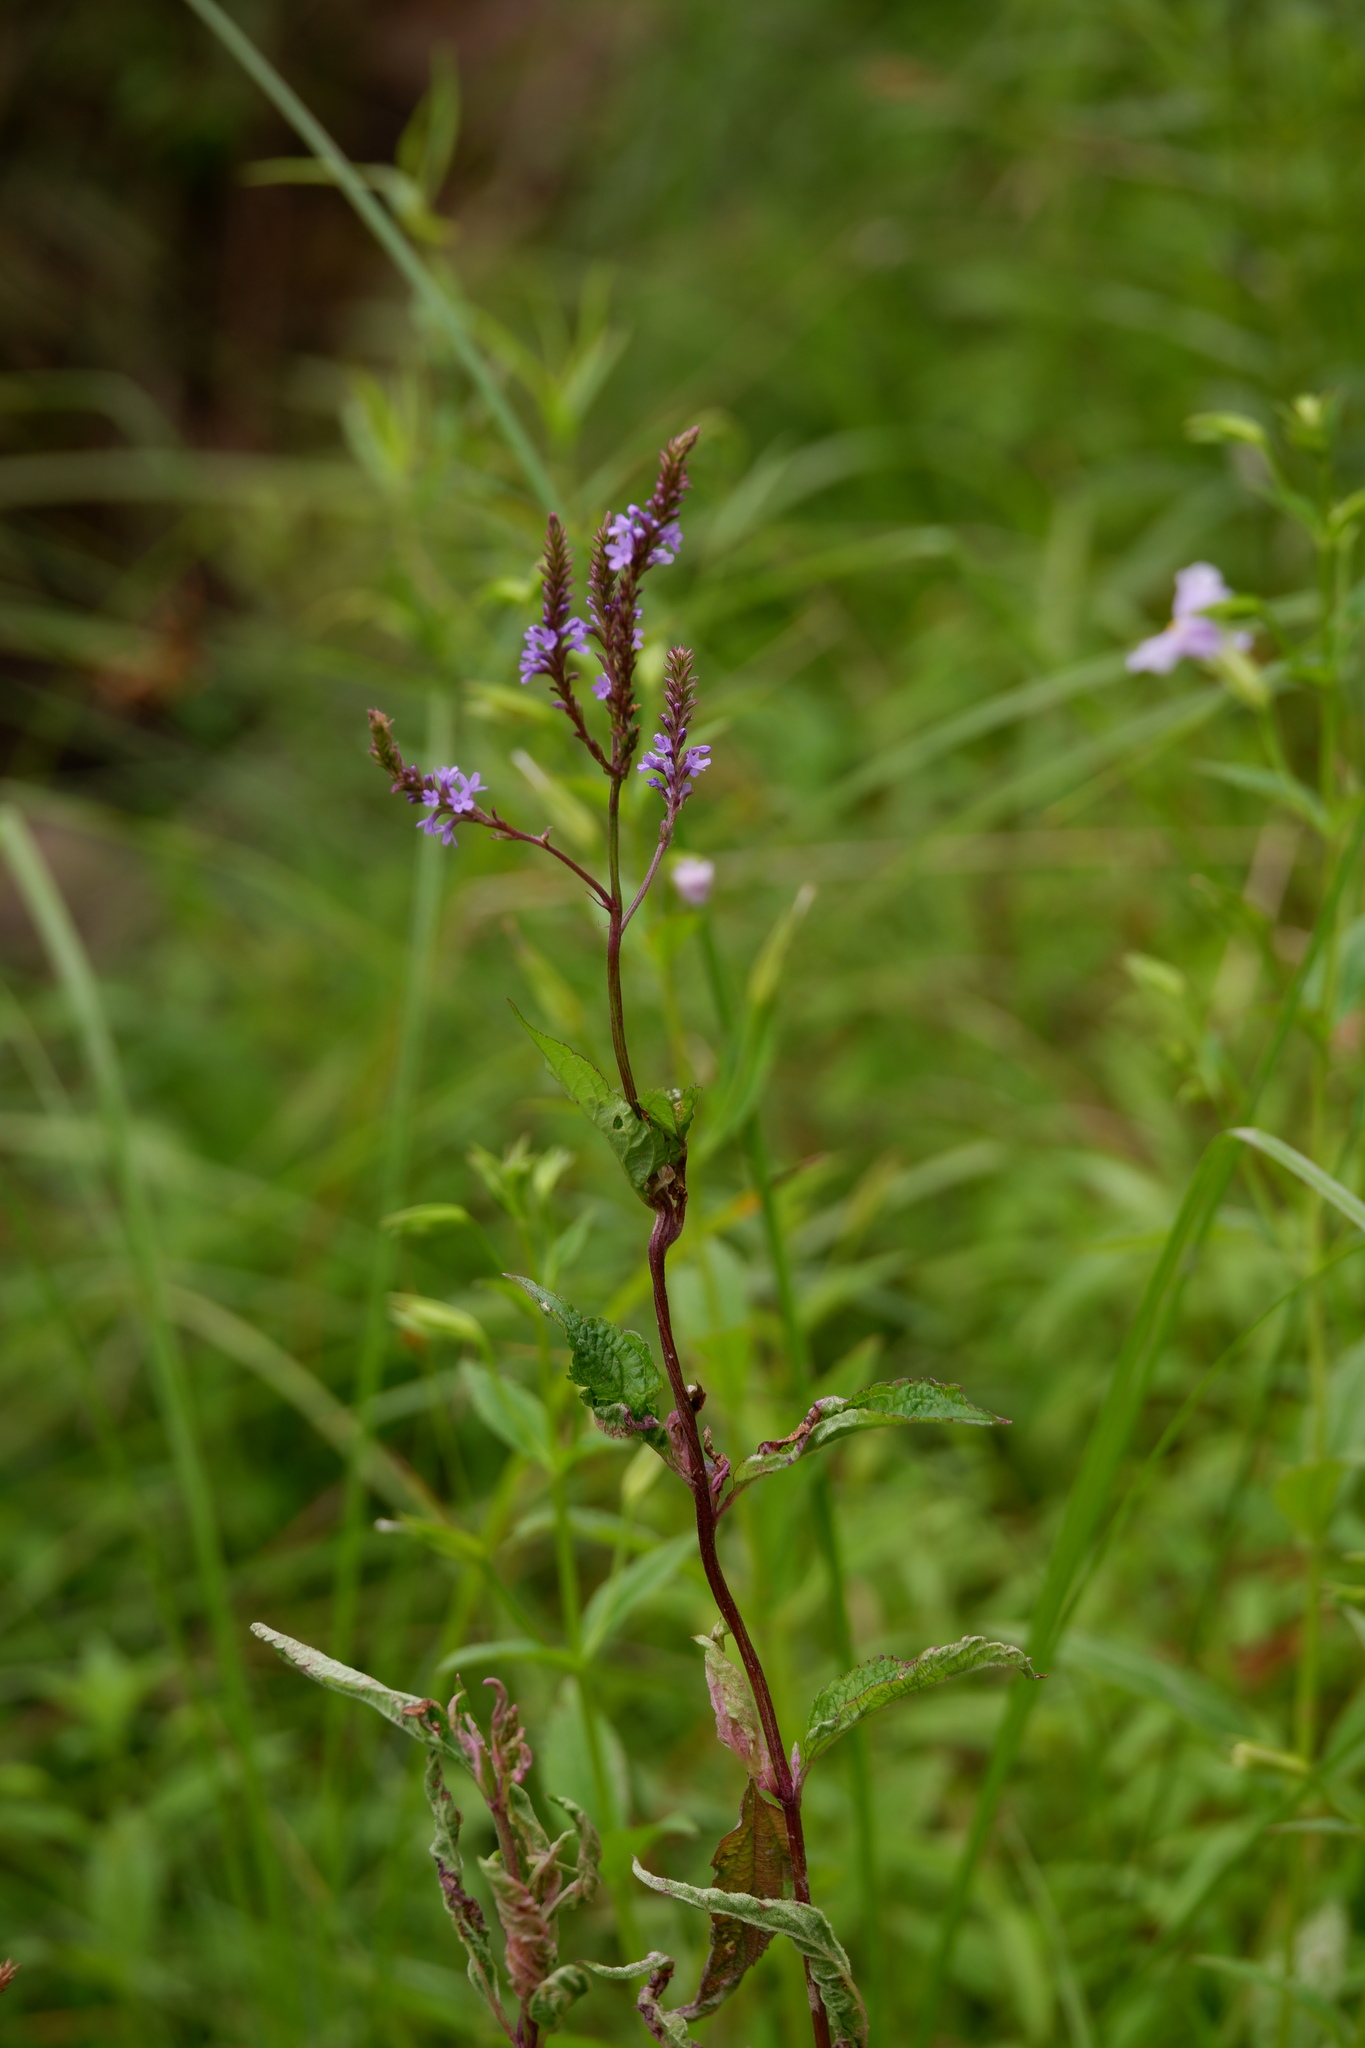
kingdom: Plantae
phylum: Tracheophyta
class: Magnoliopsida
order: Lamiales
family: Verbenaceae
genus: Verbena
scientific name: Verbena hastata
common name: American blue vervain
